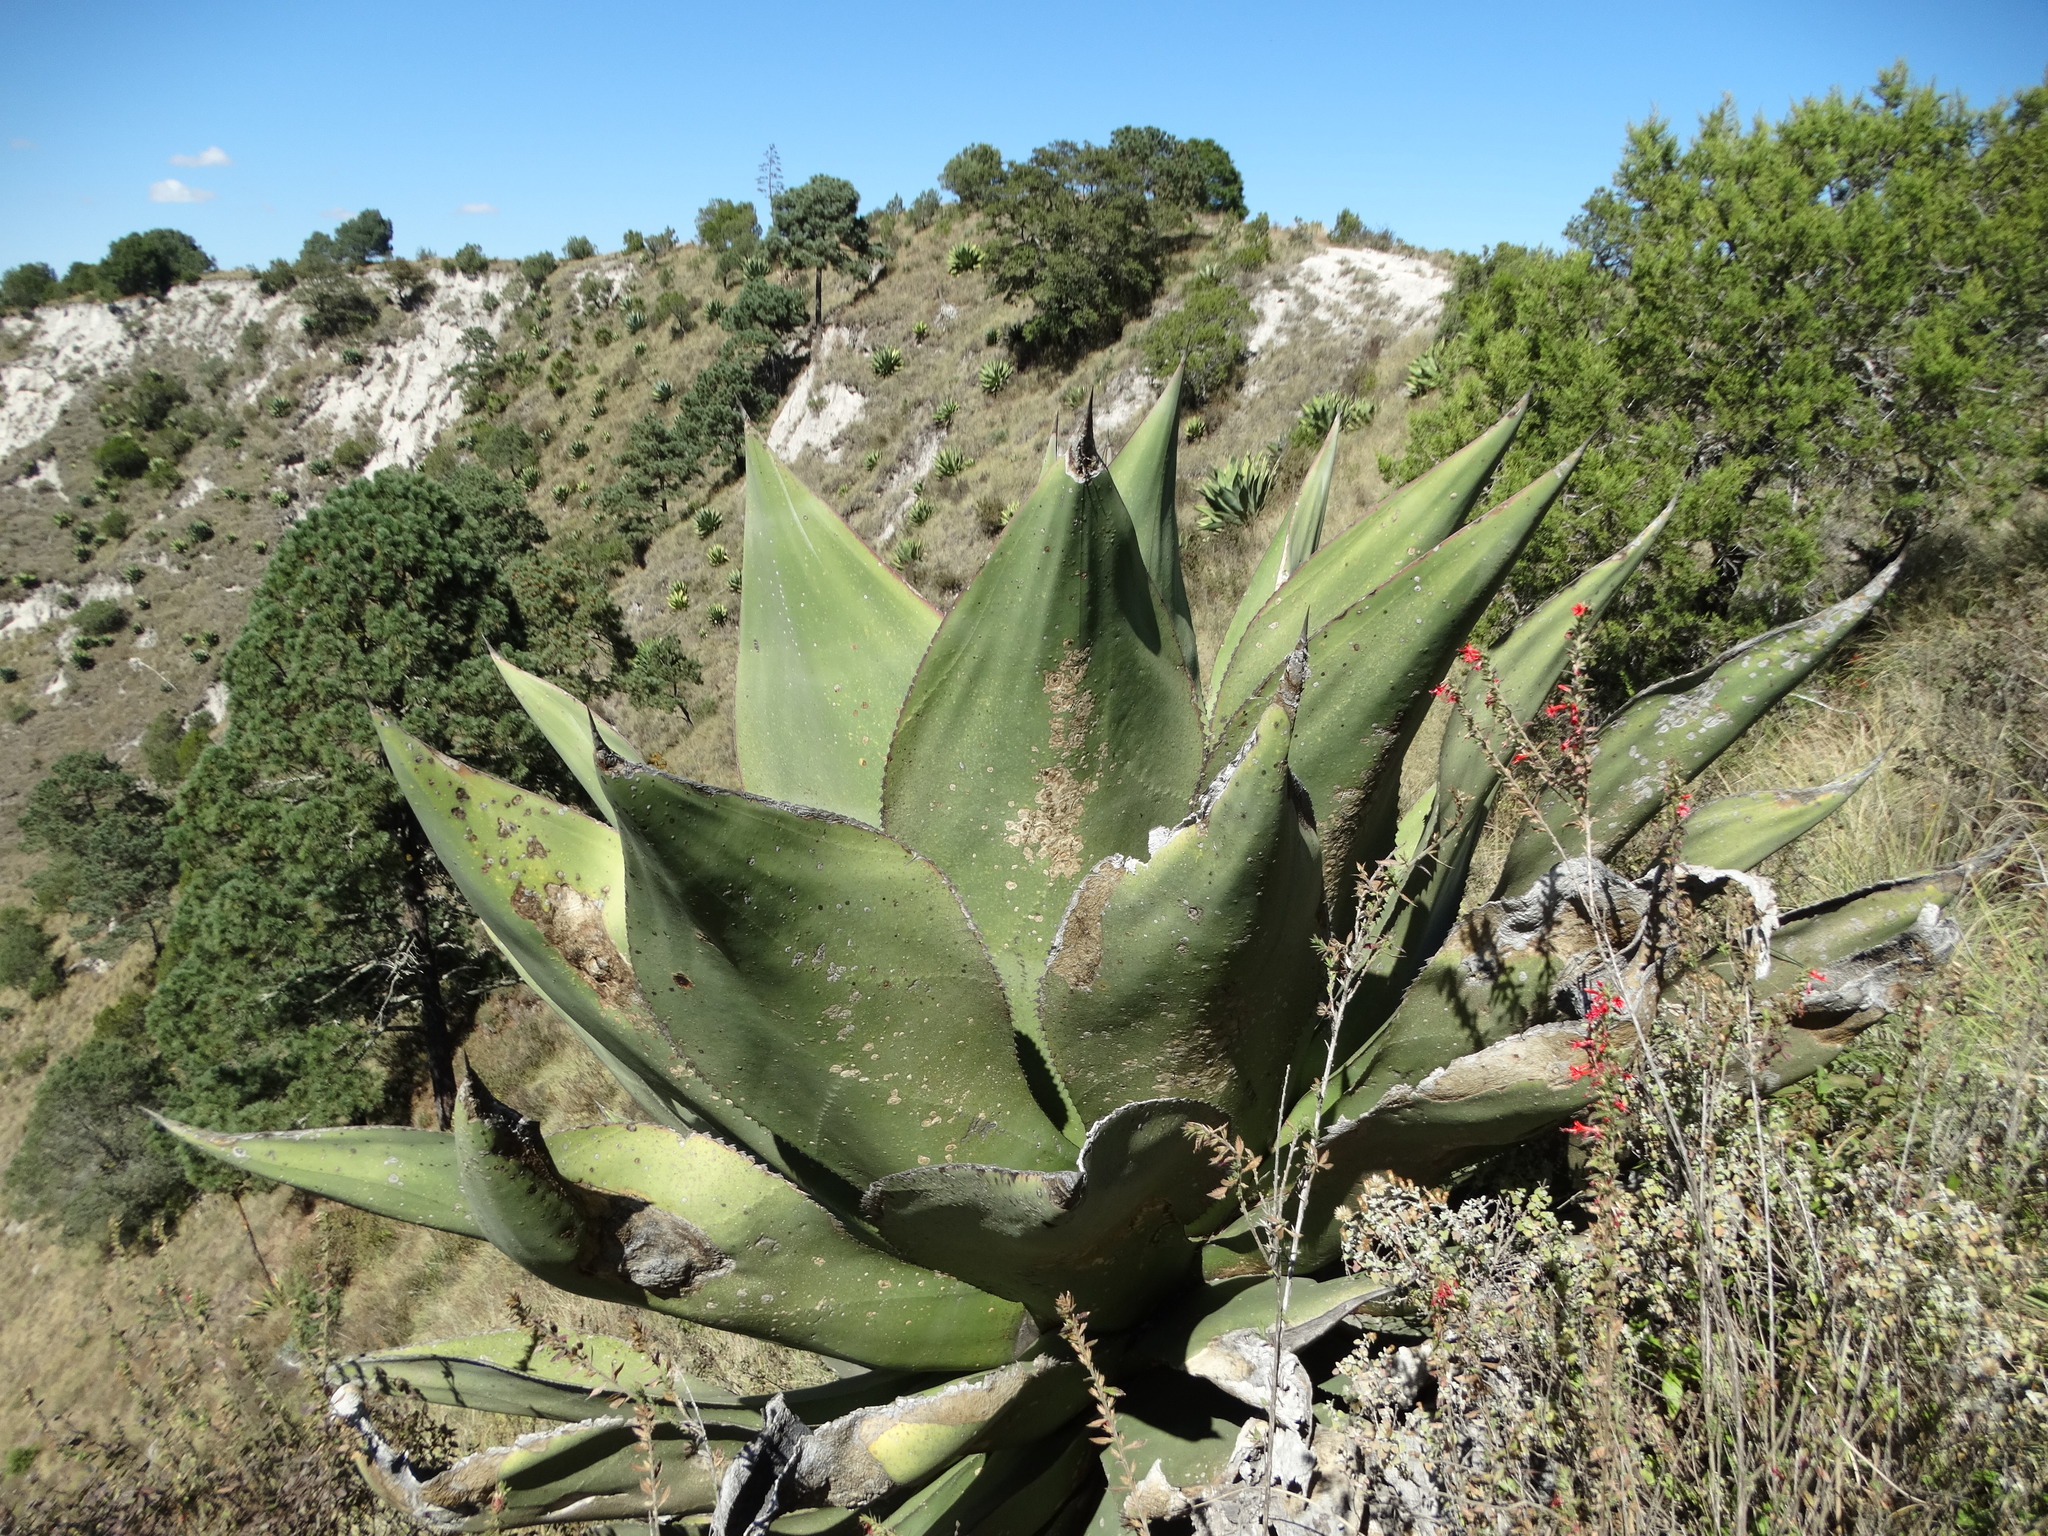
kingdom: Plantae
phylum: Tracheophyta
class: Liliopsida
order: Asparagales
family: Asparagaceae
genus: Agave
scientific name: Agave scaposa
